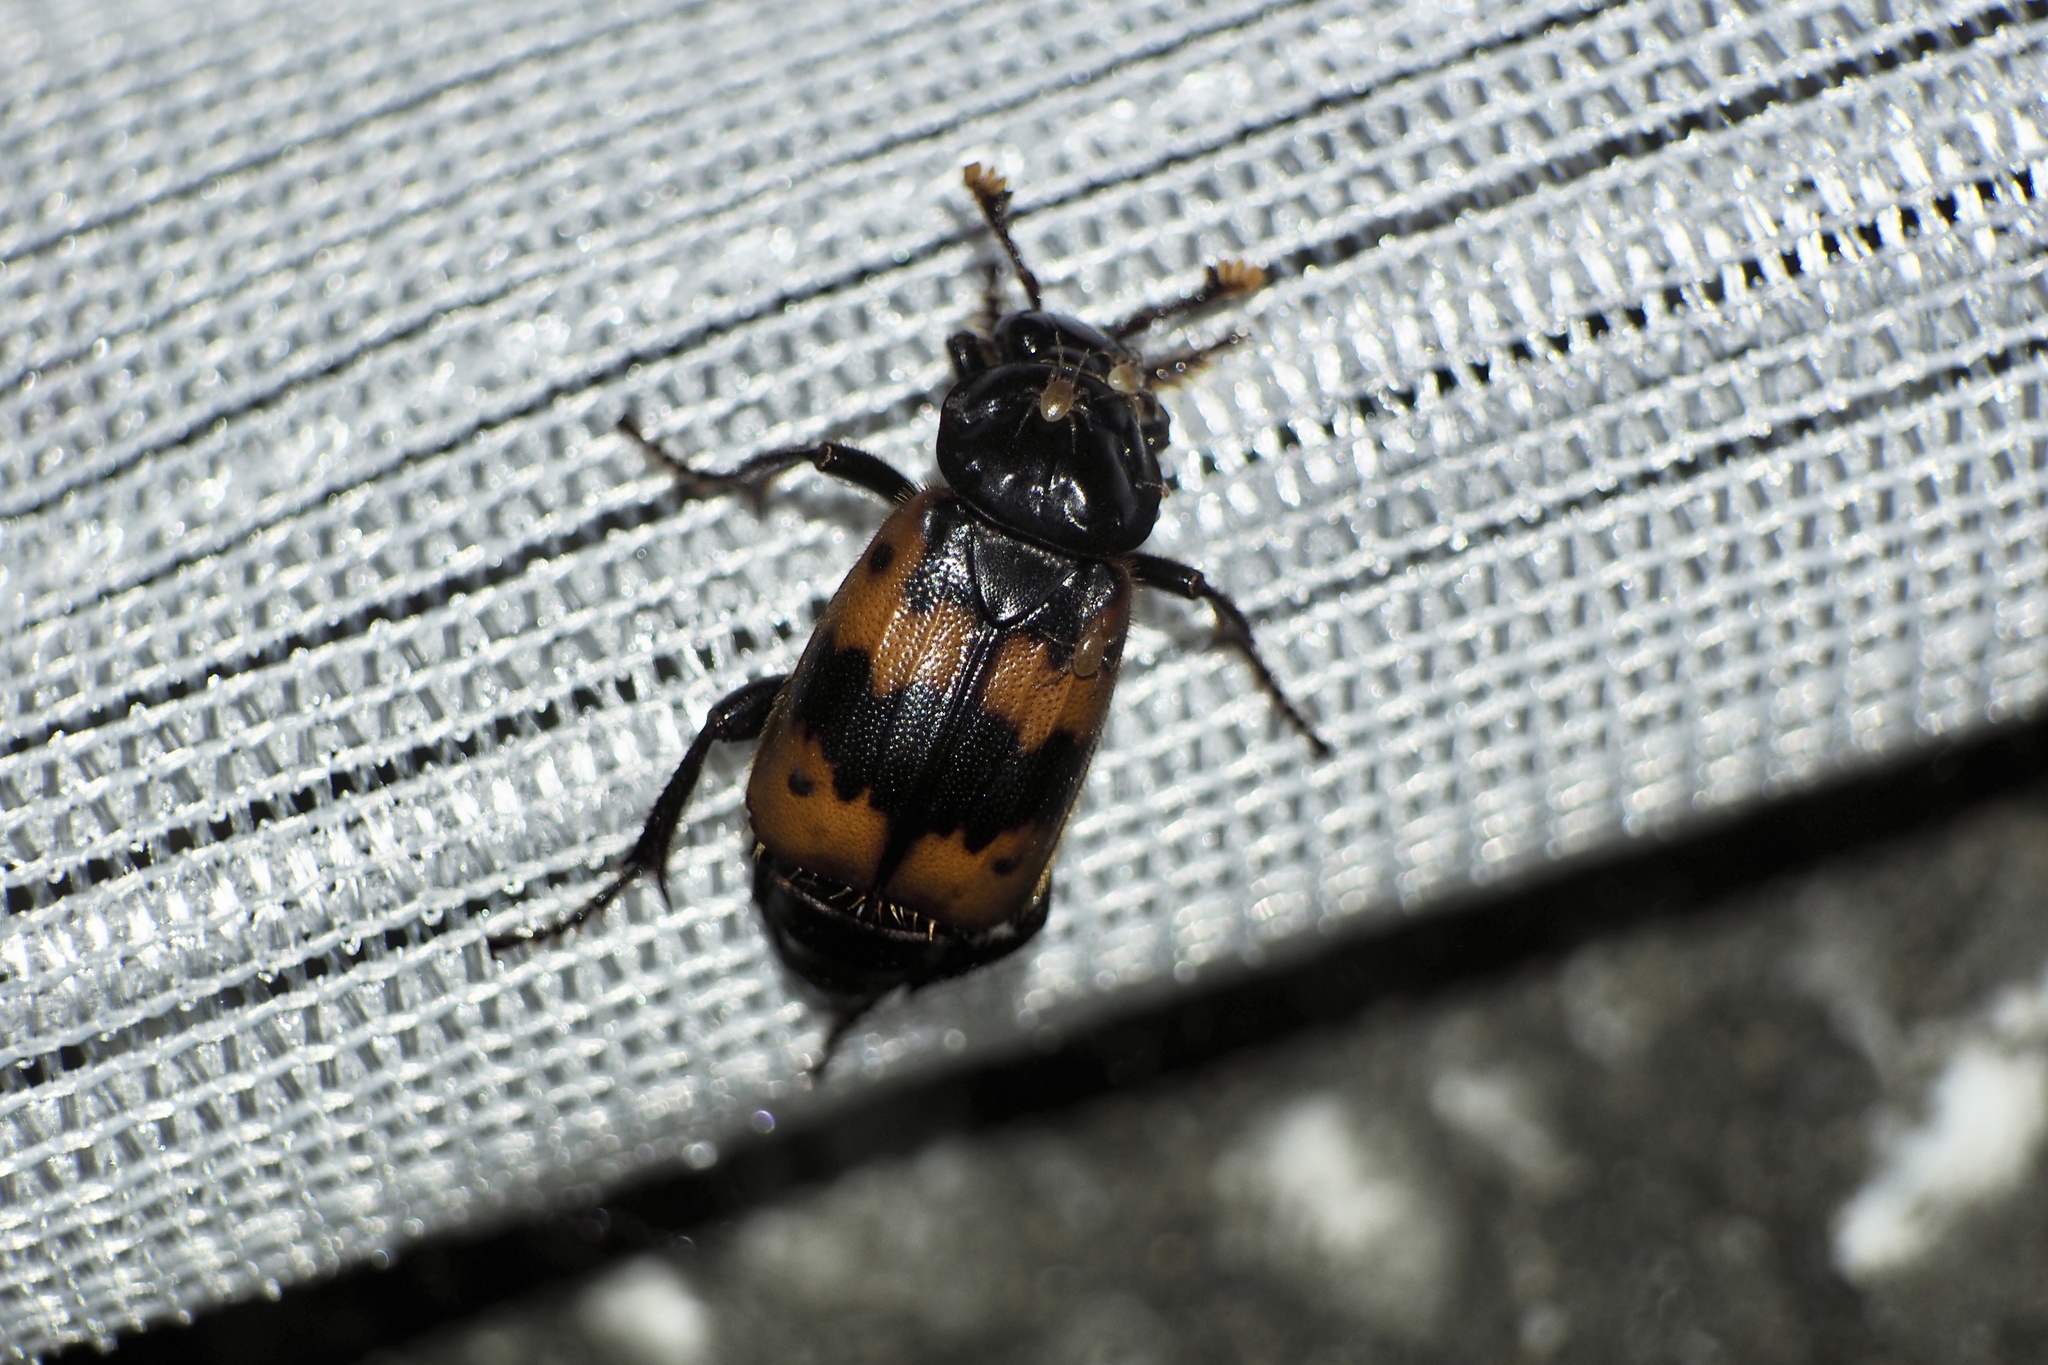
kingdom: Animalia
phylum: Arthropoda
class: Insecta
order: Coleoptera
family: Staphylinidae
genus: Nicrophorus
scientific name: Nicrophorus quadripunctatus
